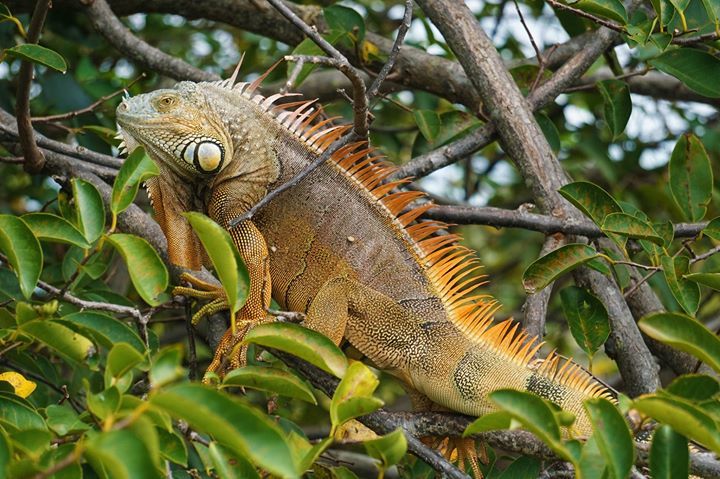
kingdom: Animalia
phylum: Chordata
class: Squamata
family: Iguanidae
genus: Iguana
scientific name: Iguana iguana
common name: Green iguana
